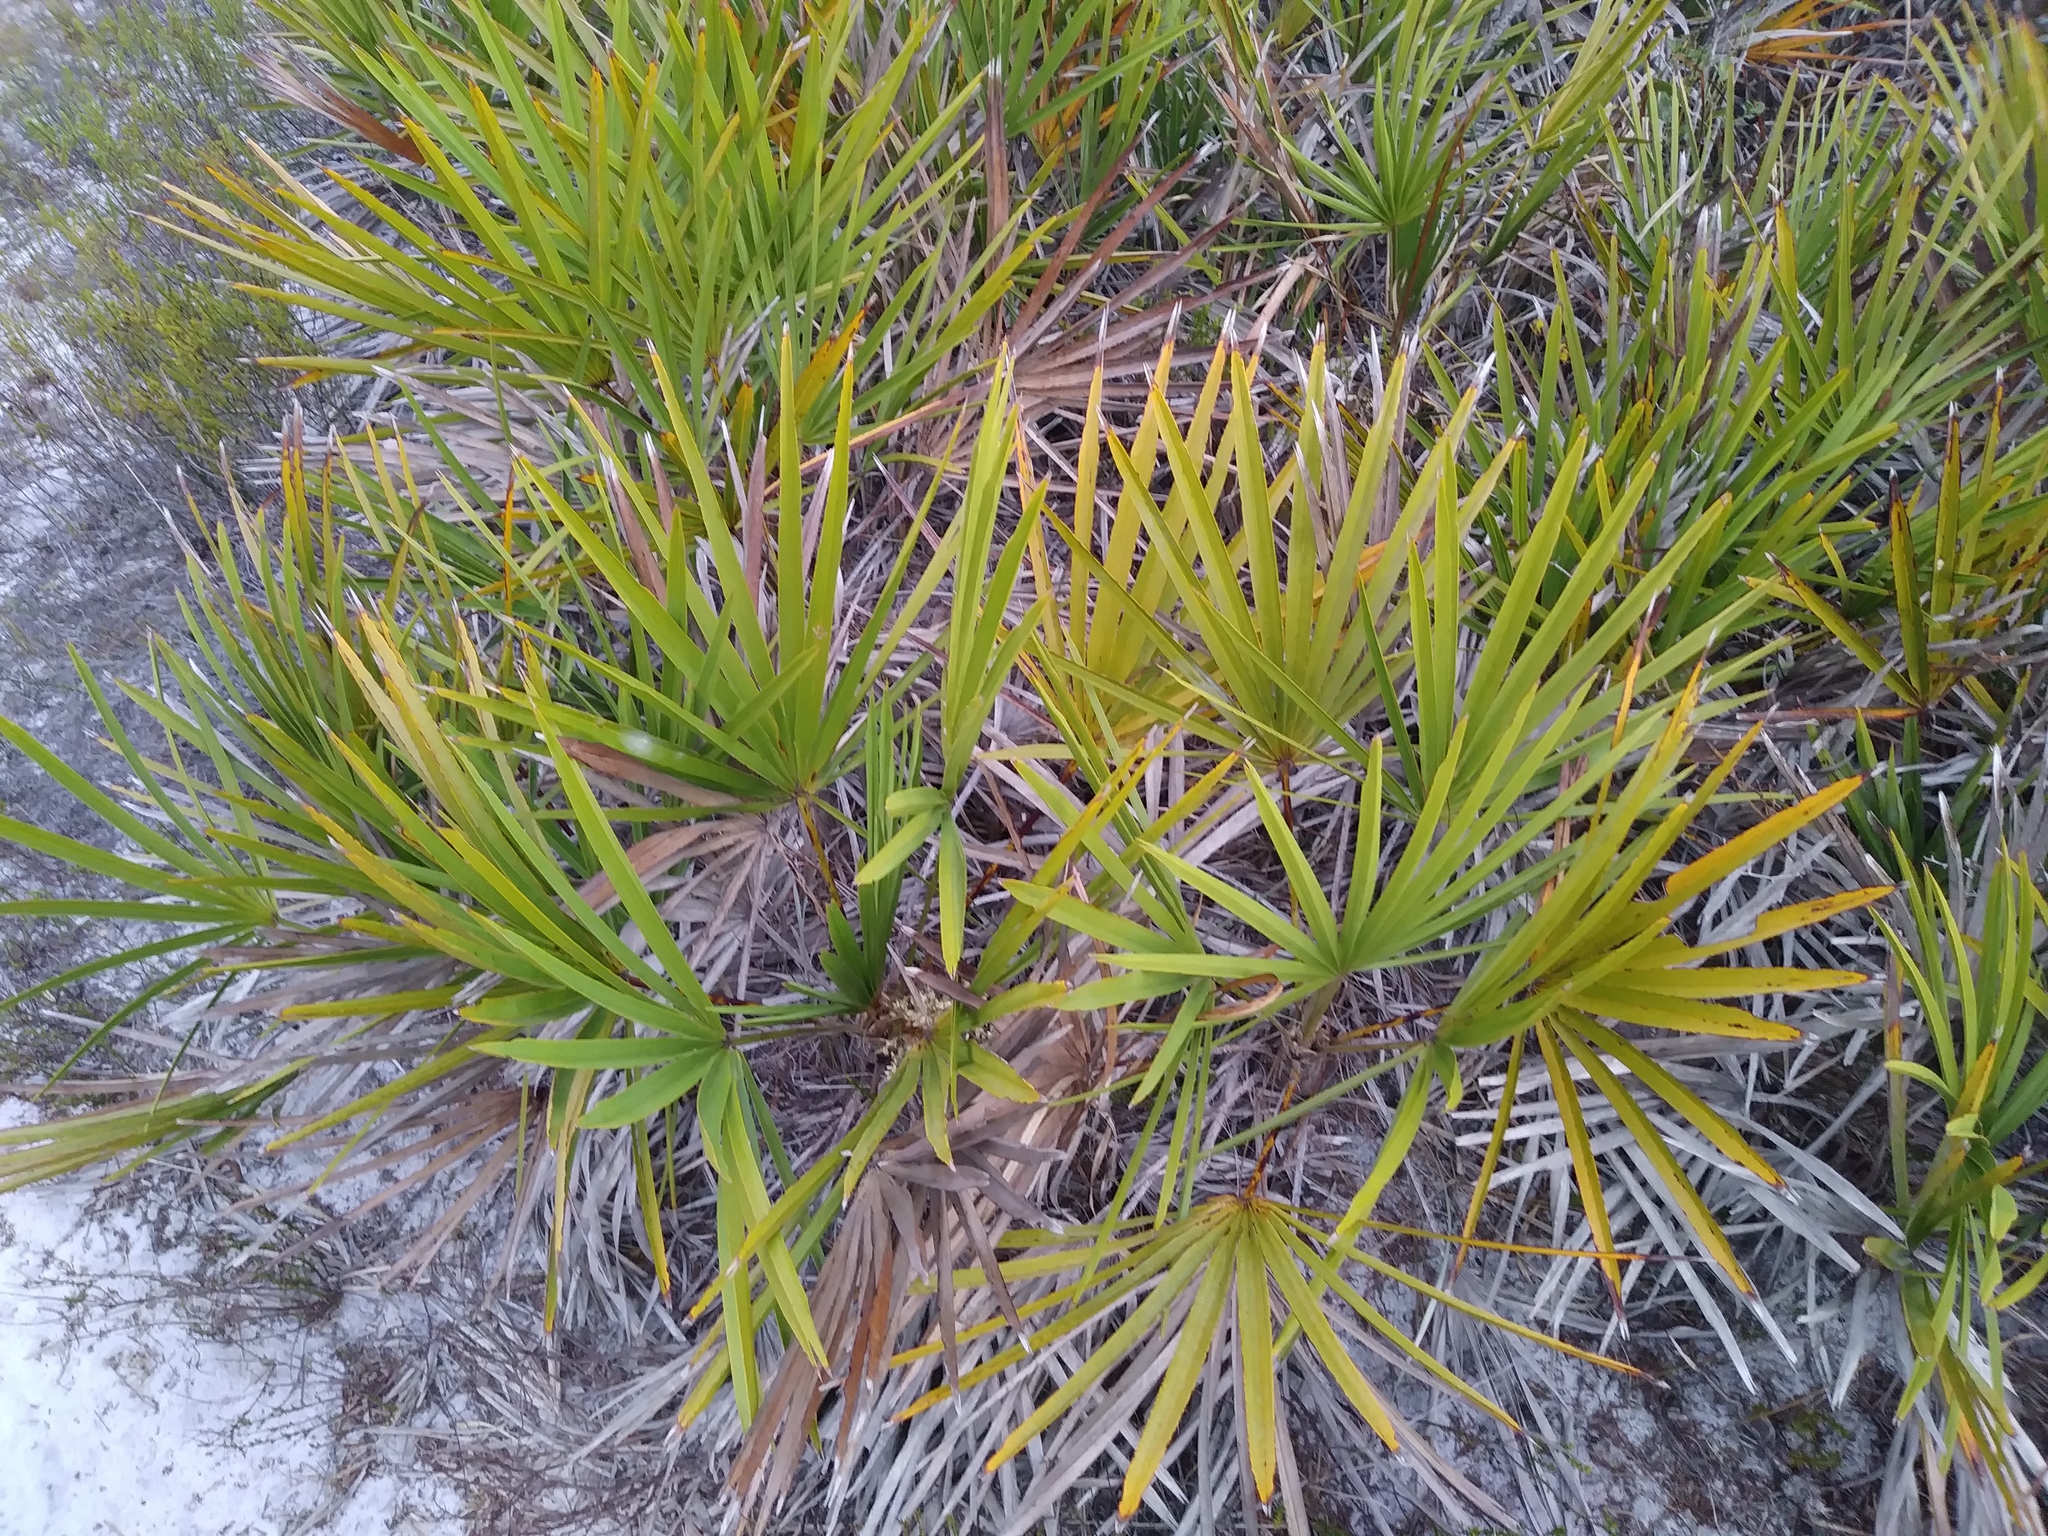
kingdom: Plantae
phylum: Tracheophyta
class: Liliopsida
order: Arecales
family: Arecaceae
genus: Serenoa
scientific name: Serenoa repens
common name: Saw-palmetto
